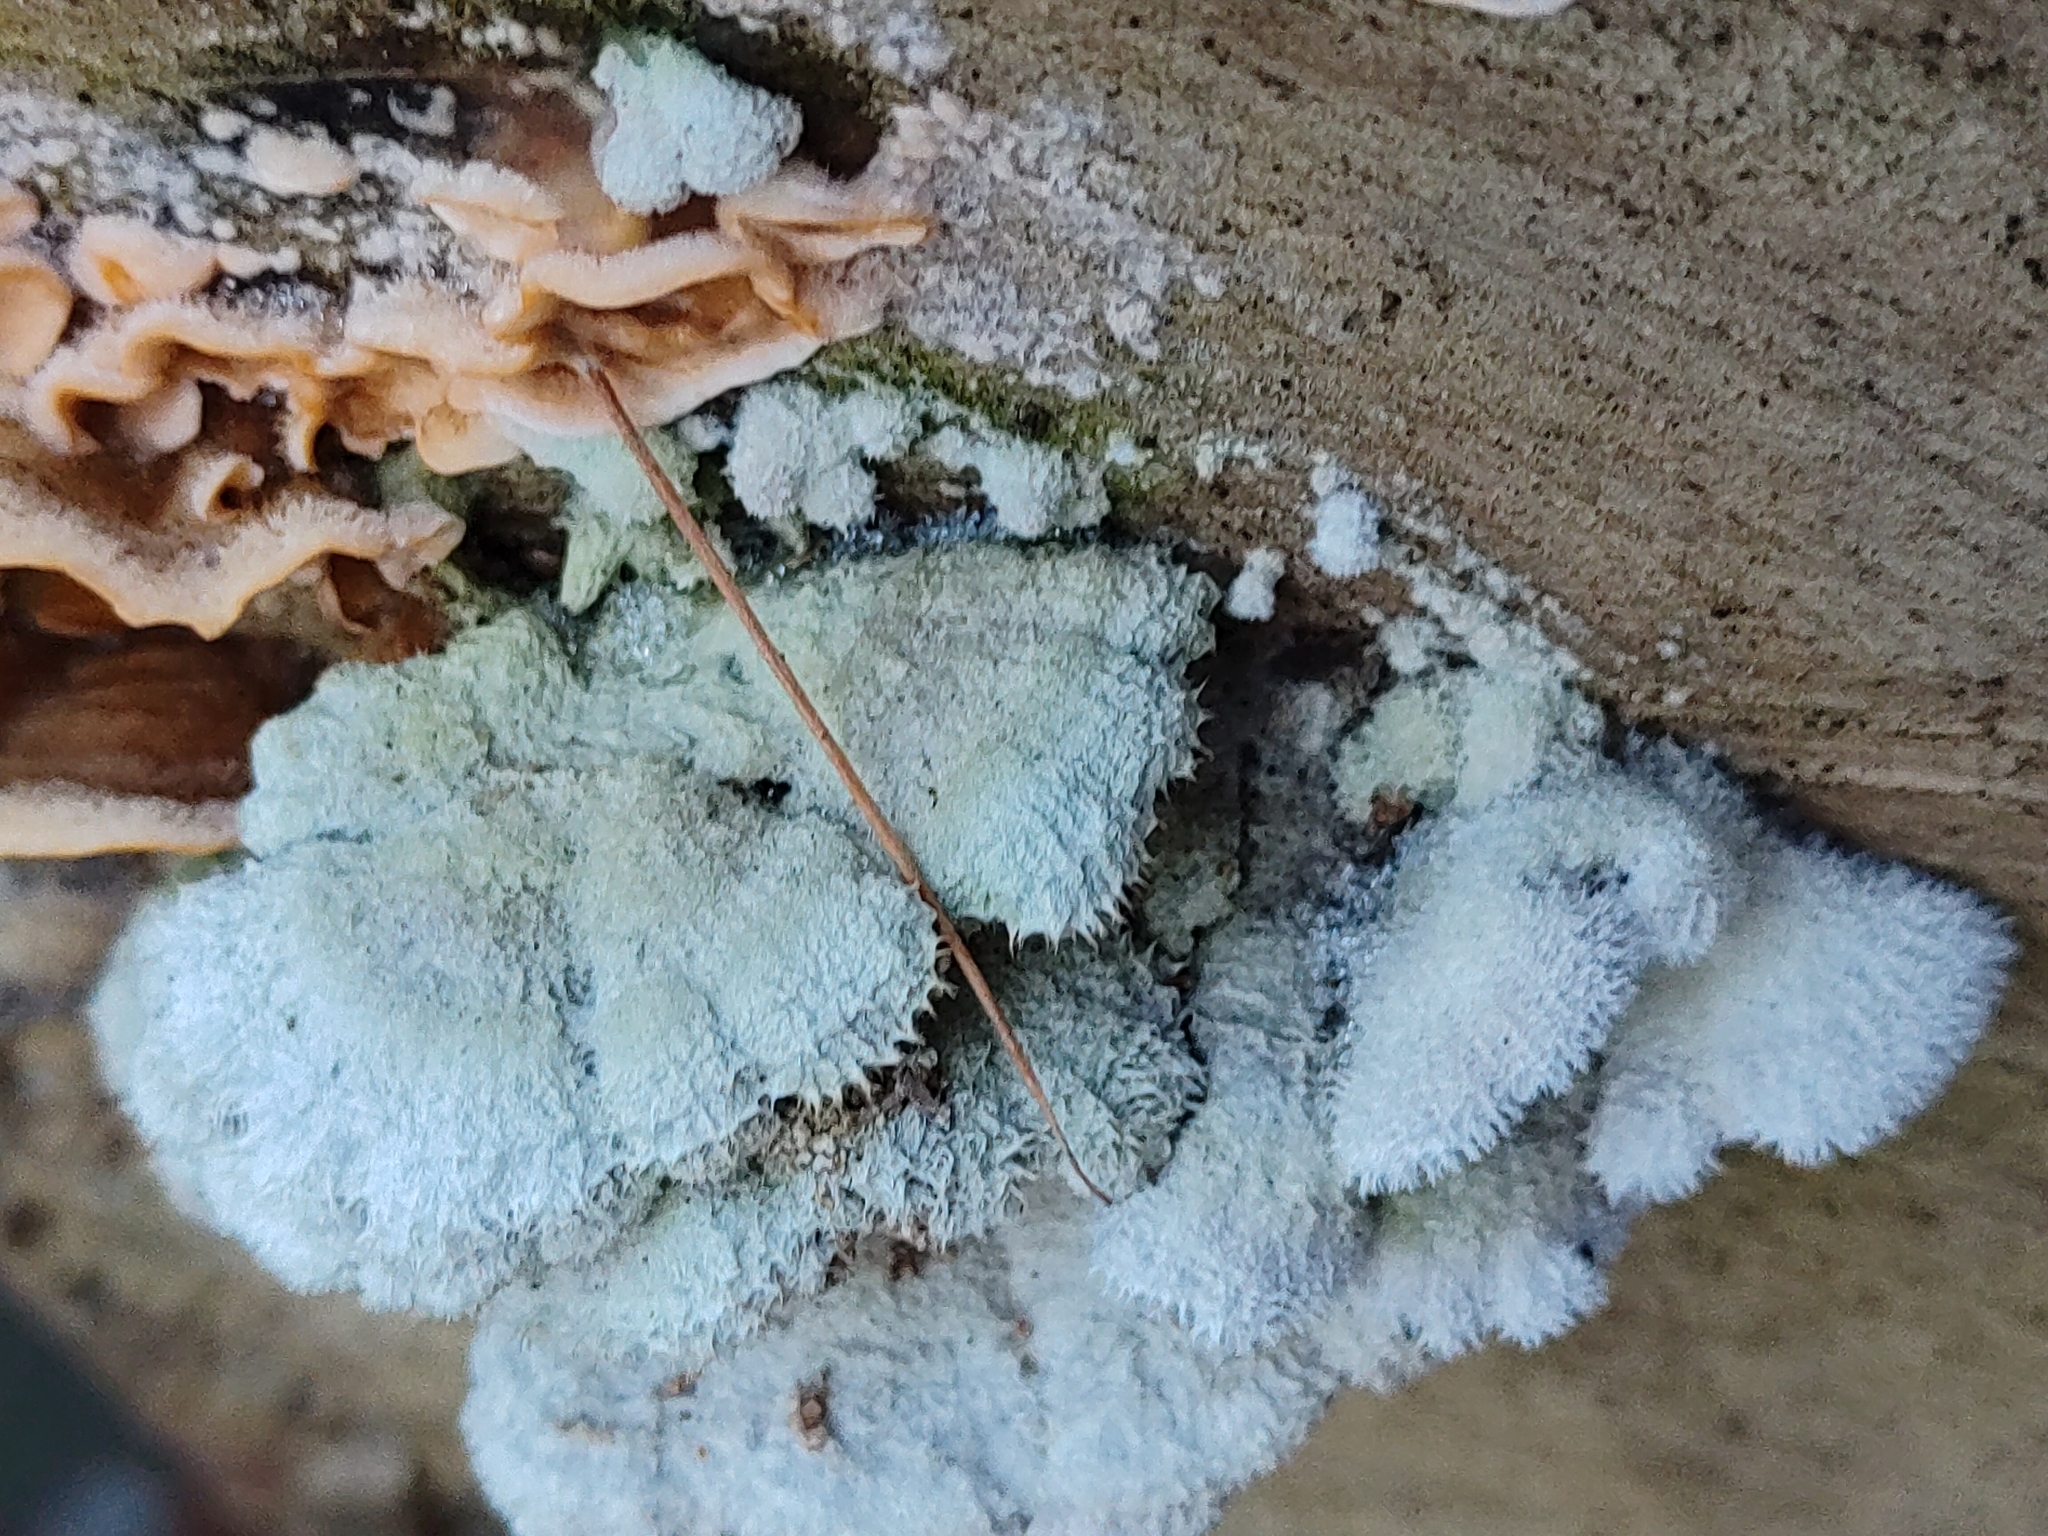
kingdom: Fungi
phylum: Basidiomycota
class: Agaricomycetes
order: Agaricales
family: Schizophyllaceae
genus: Schizophyllum
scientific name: Schizophyllum commune
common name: Common porecrust
